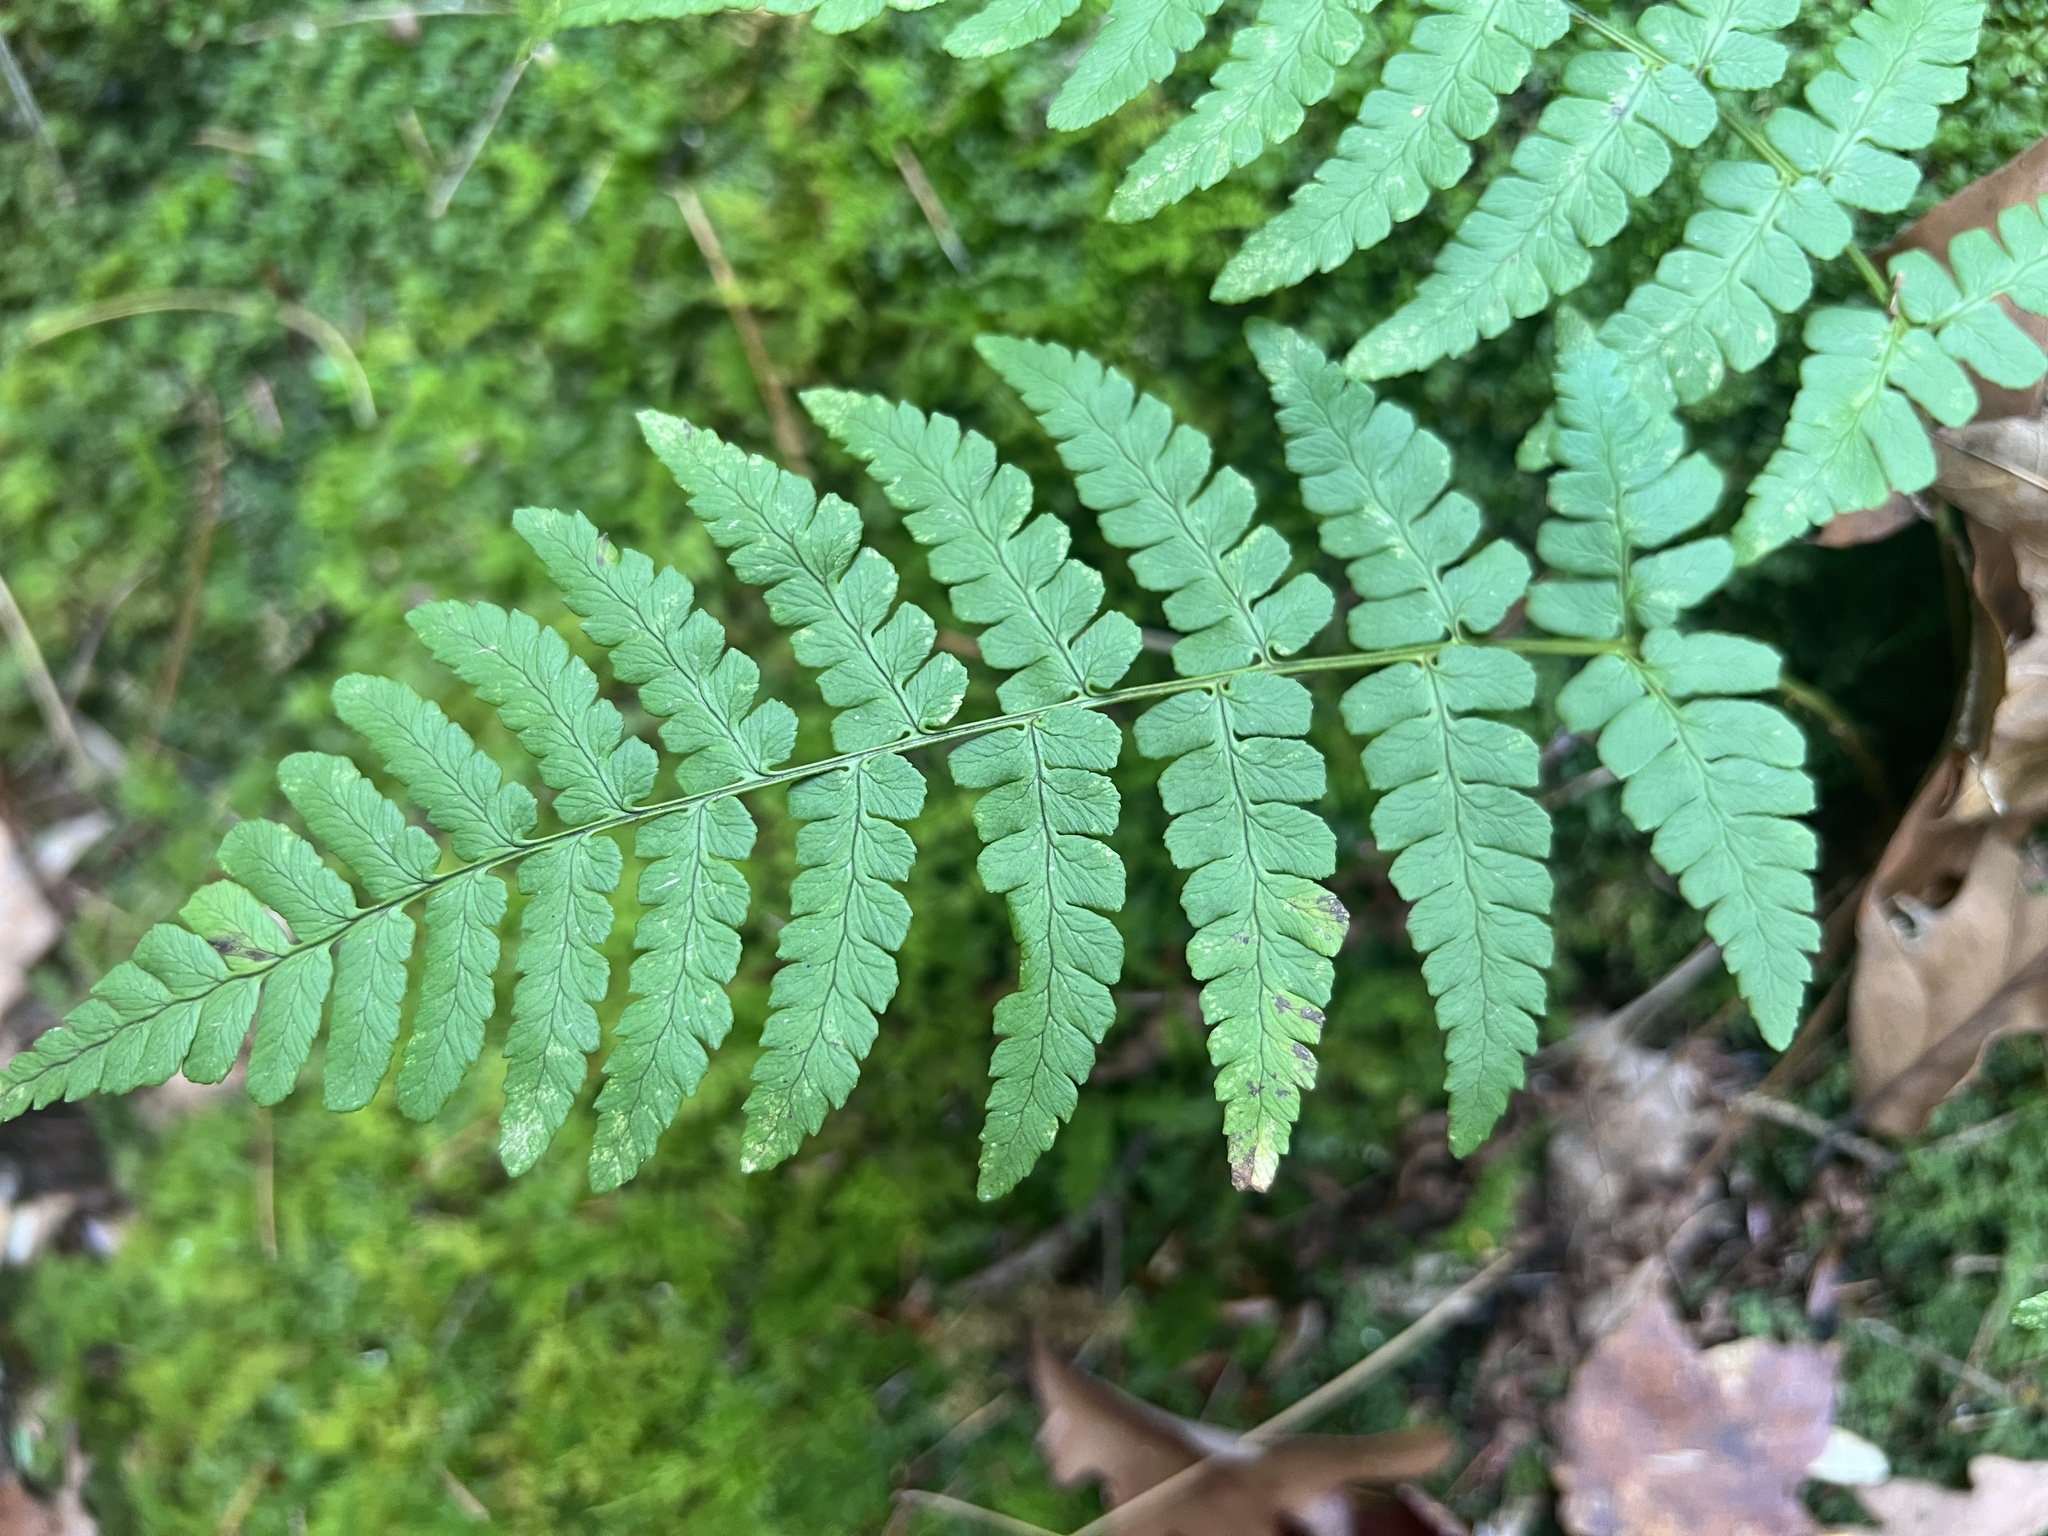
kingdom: Plantae
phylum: Tracheophyta
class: Polypodiopsida
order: Polypodiales
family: Dryopteridaceae
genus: Dryopteris
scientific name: Dryopteris marginalis
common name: Marginal wood fern
